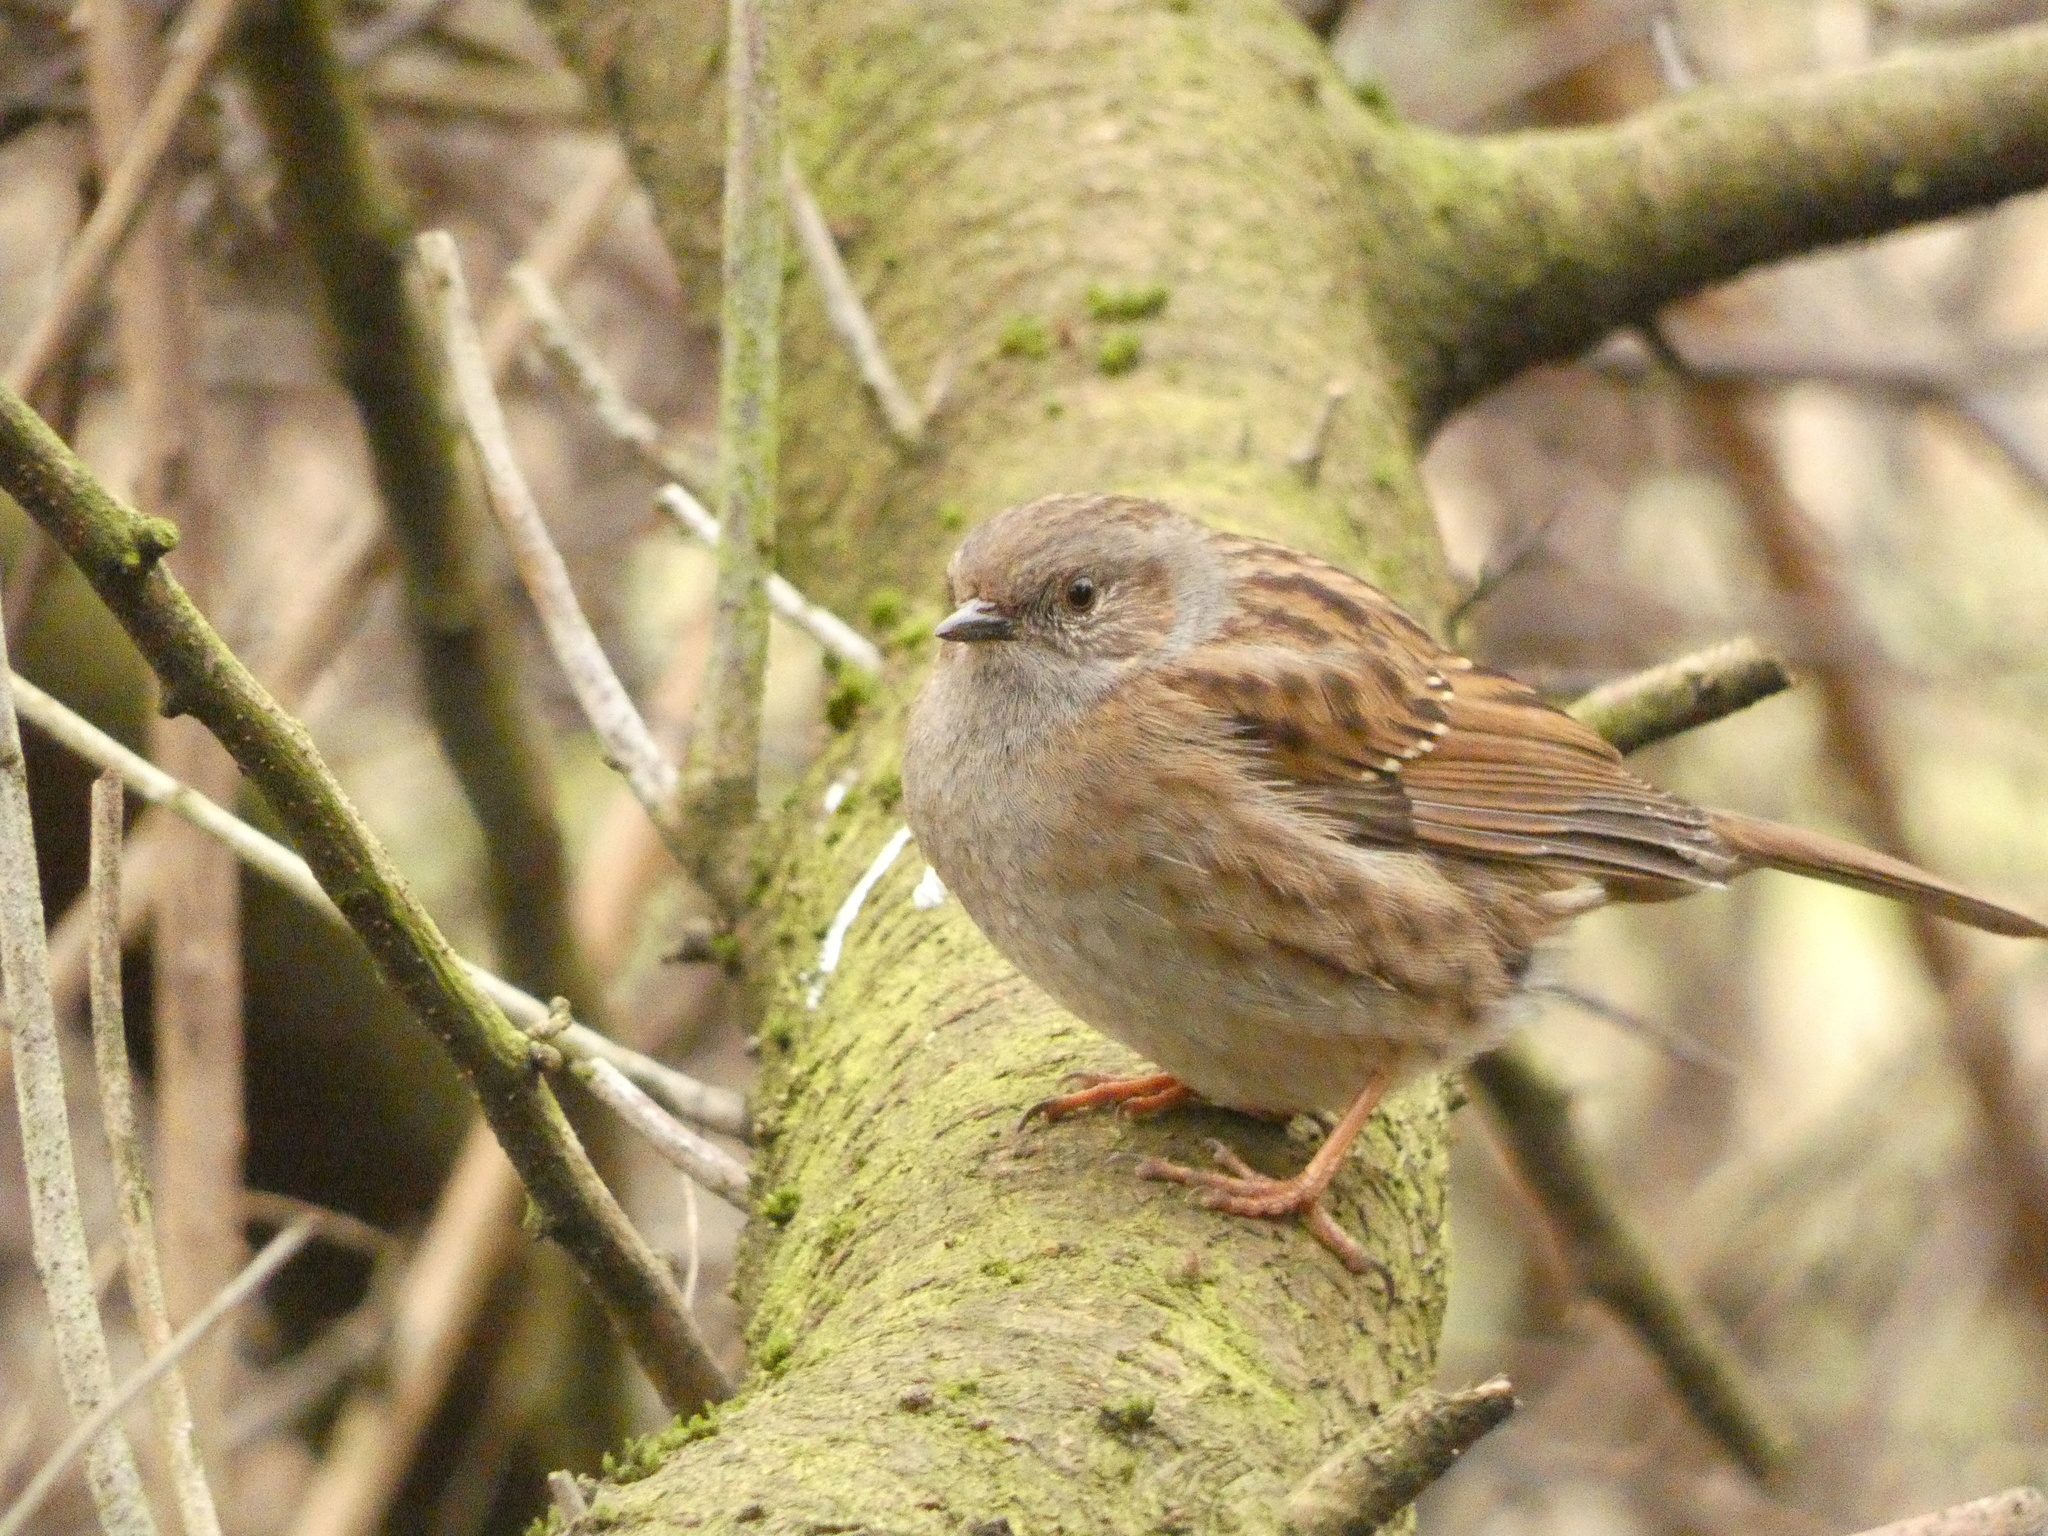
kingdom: Animalia
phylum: Chordata
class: Aves
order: Passeriformes
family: Prunellidae
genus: Prunella
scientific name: Prunella modularis
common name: Dunnock
